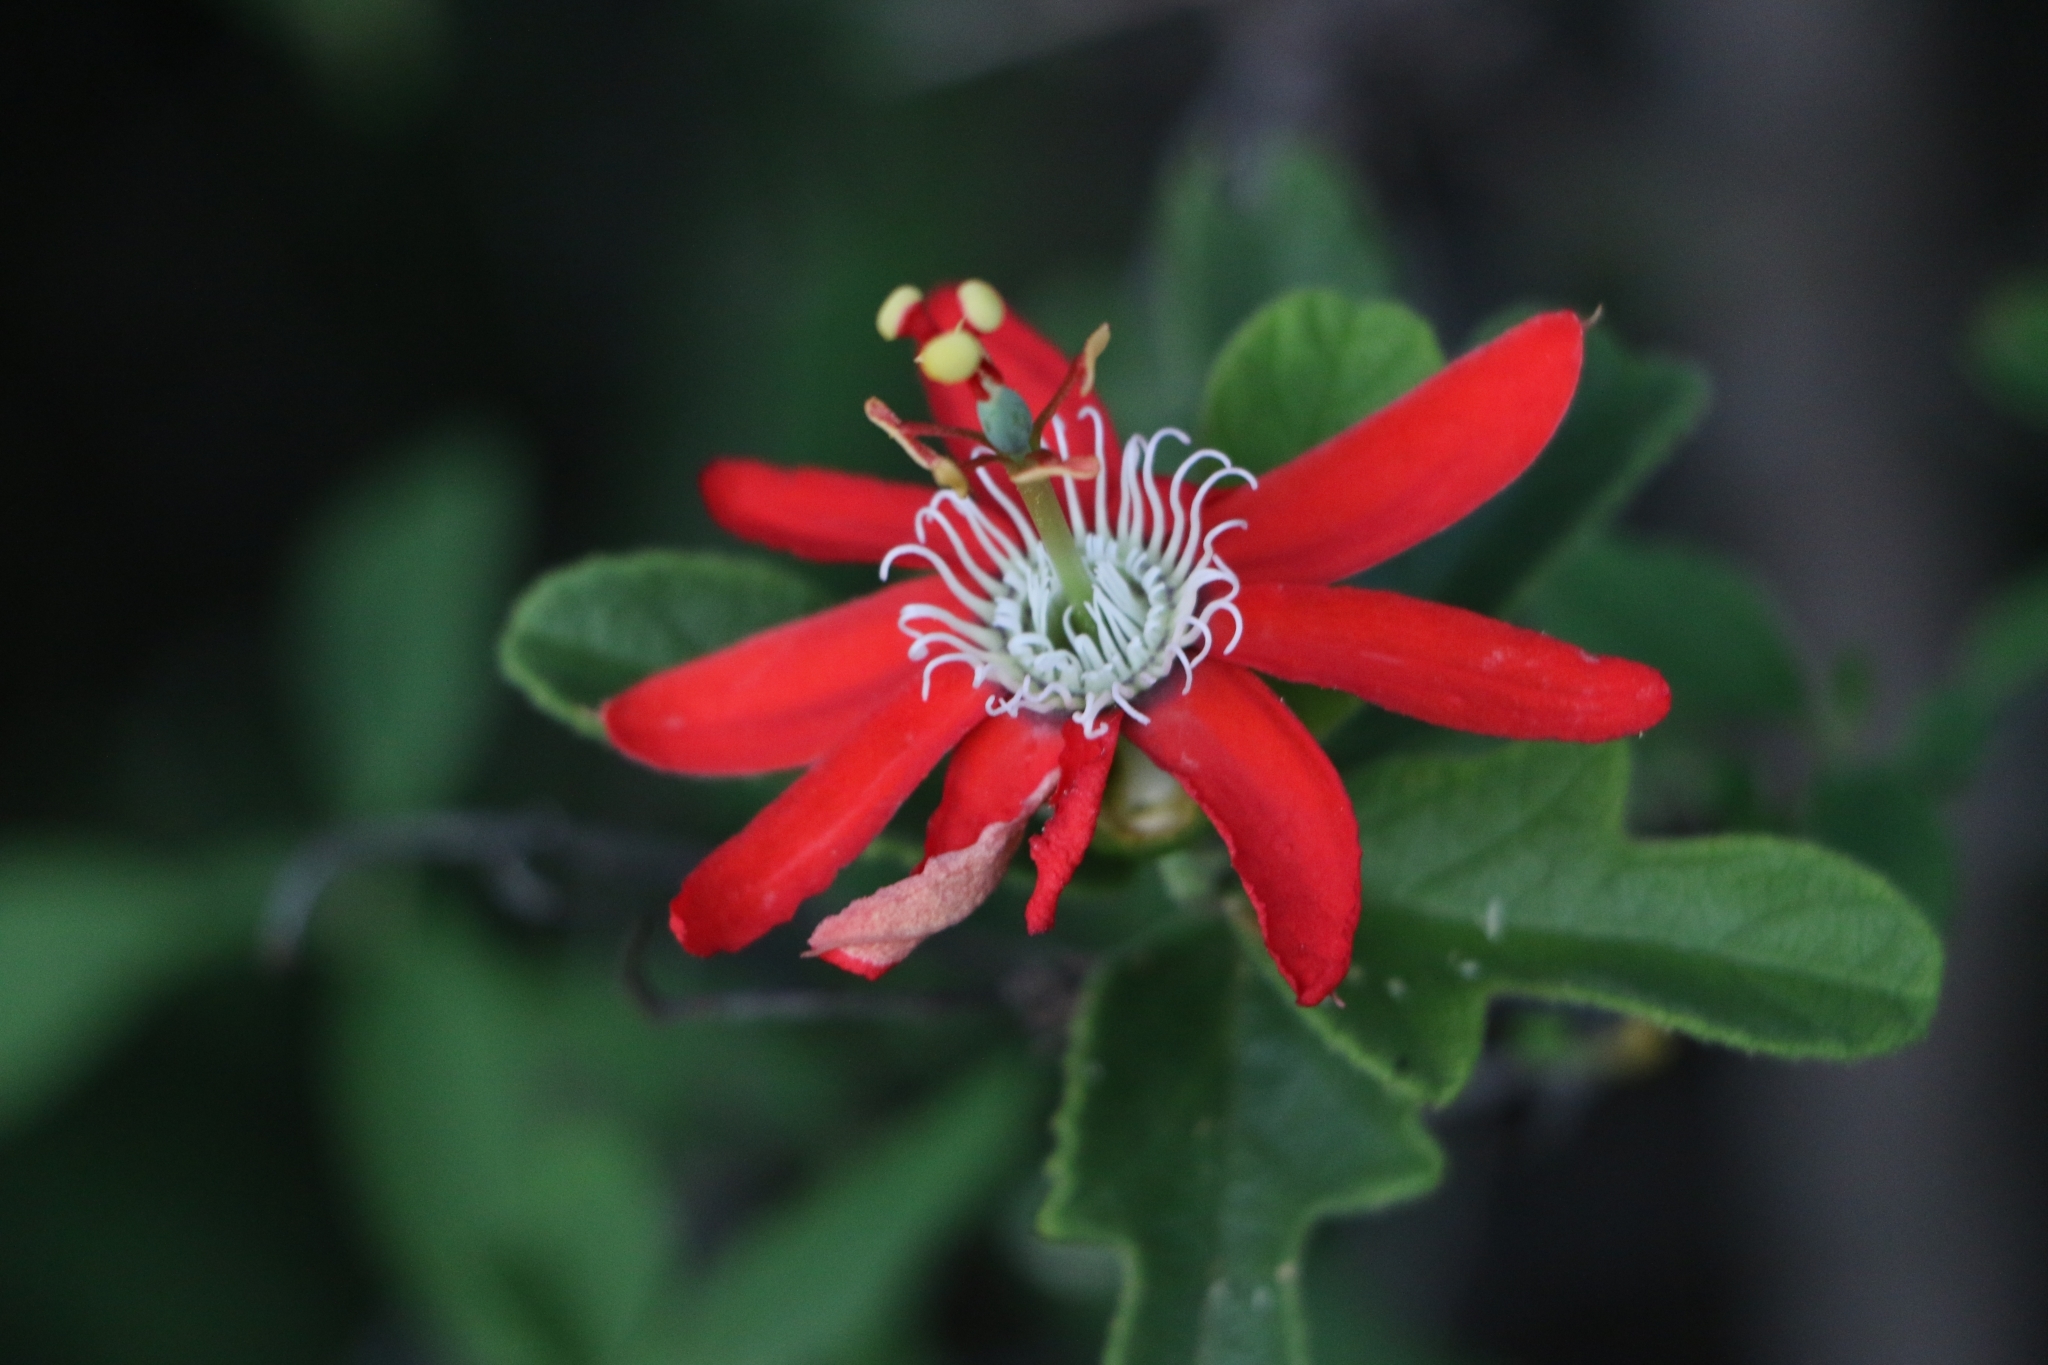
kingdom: Plantae
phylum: Tracheophyta
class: Magnoliopsida
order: Malpighiales
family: Passifloraceae
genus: Passiflora
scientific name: Passiflora luetzelburgii
